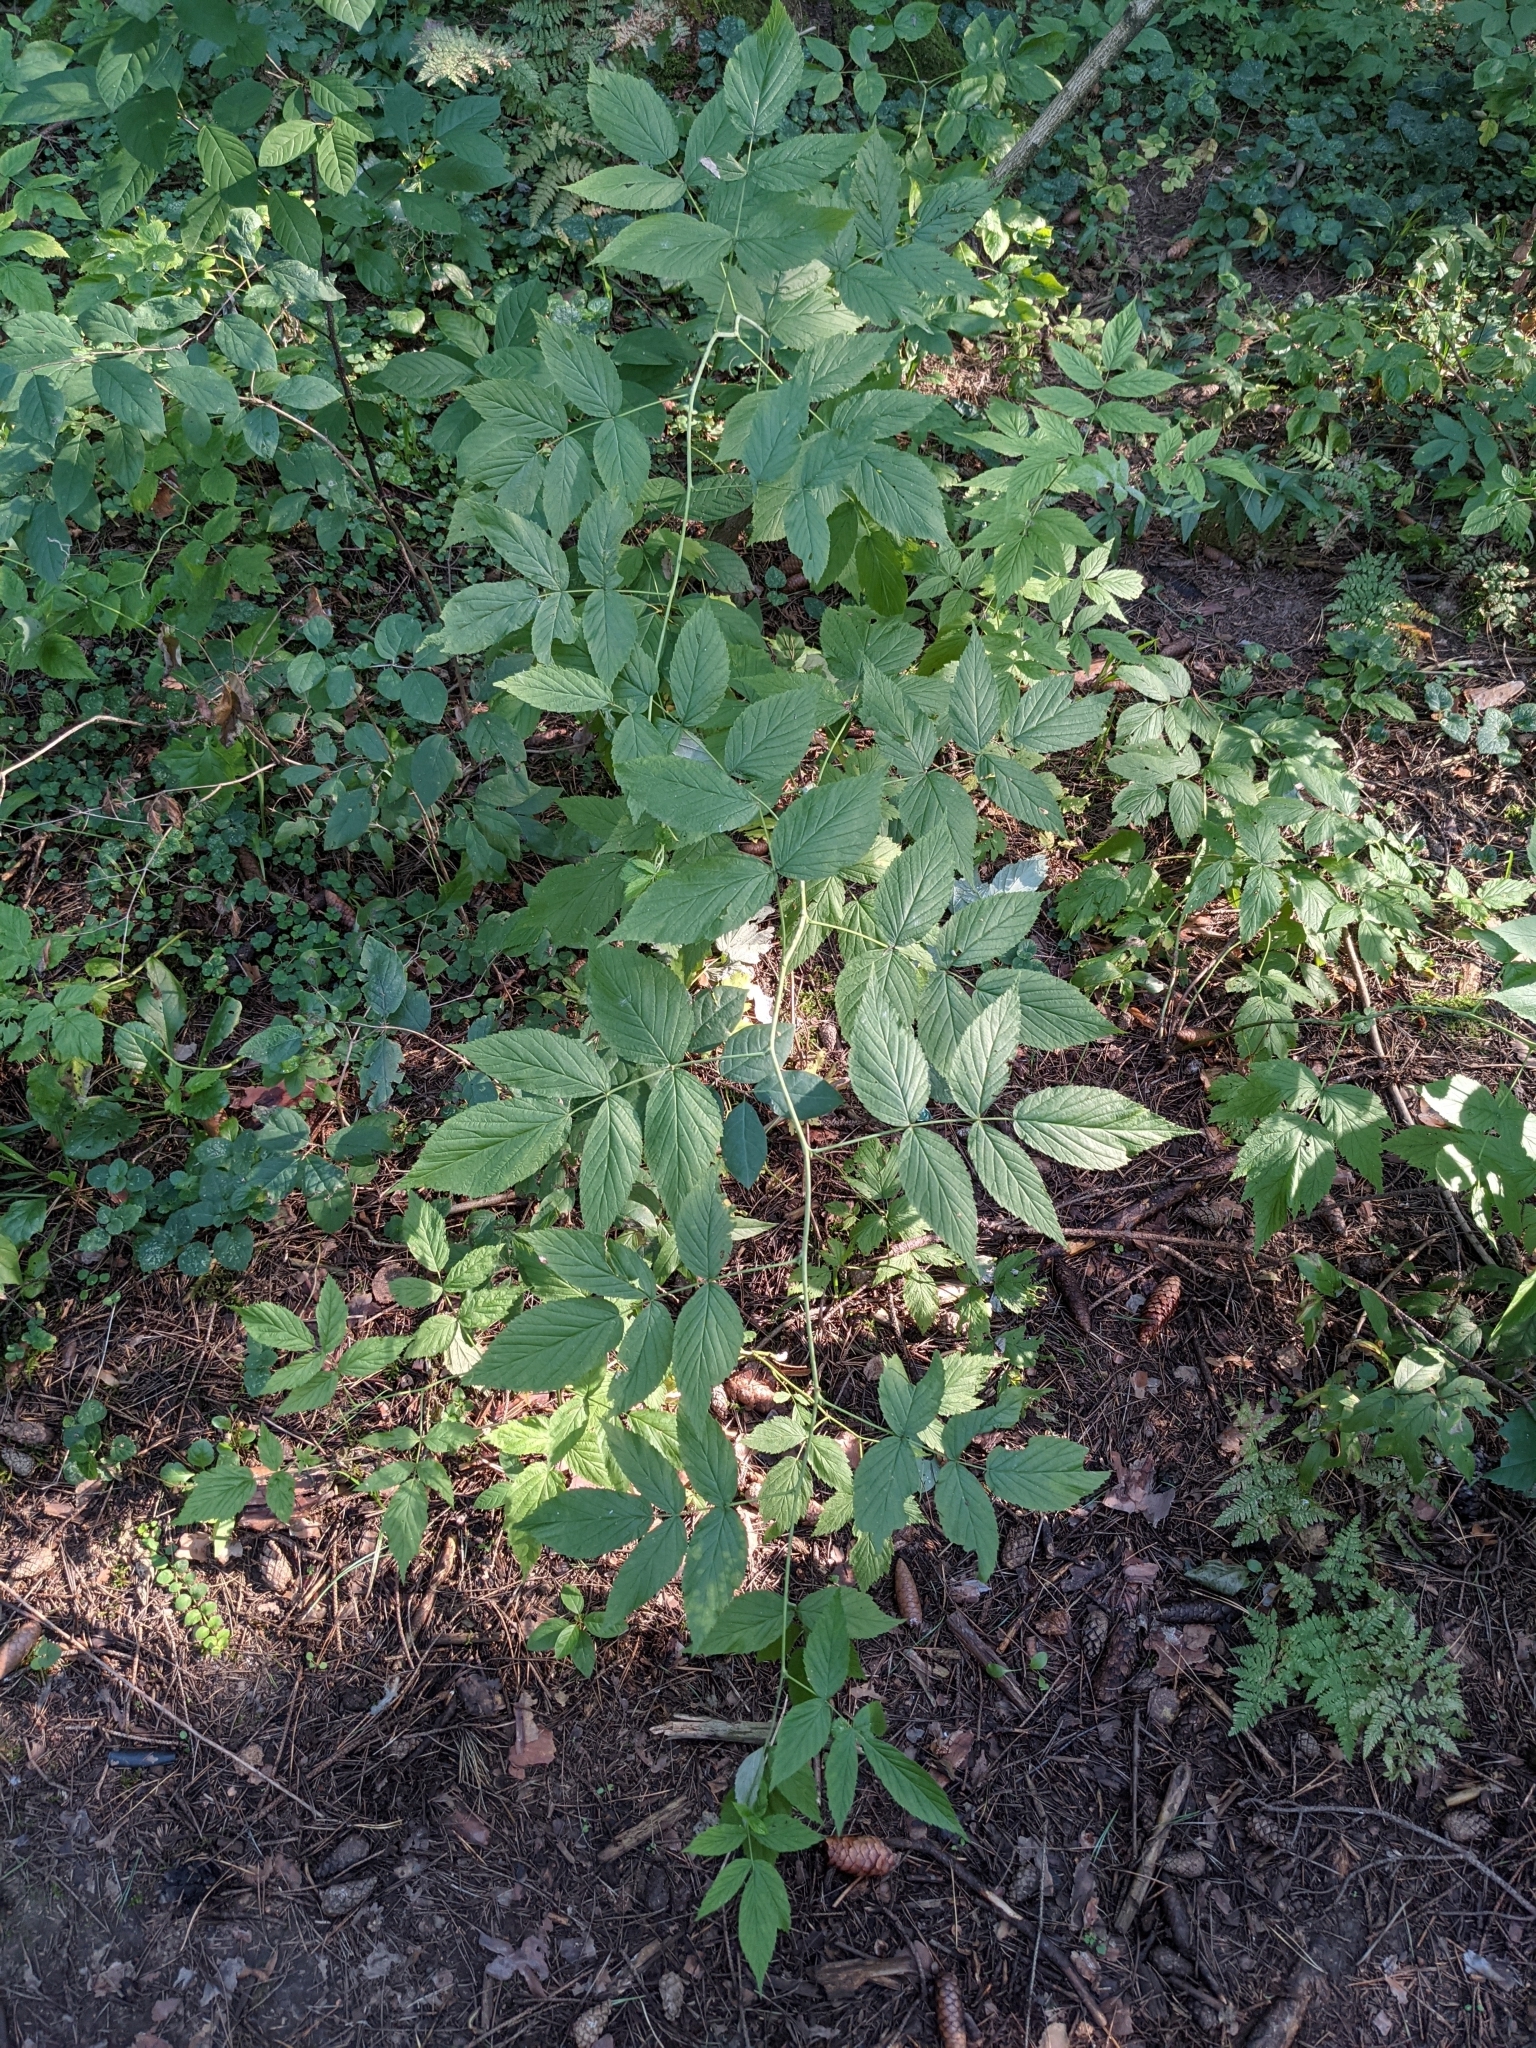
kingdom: Plantae
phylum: Tracheophyta
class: Magnoliopsida
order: Rosales
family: Rosaceae
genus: Rubus
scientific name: Rubus idaeus
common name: Raspberry
